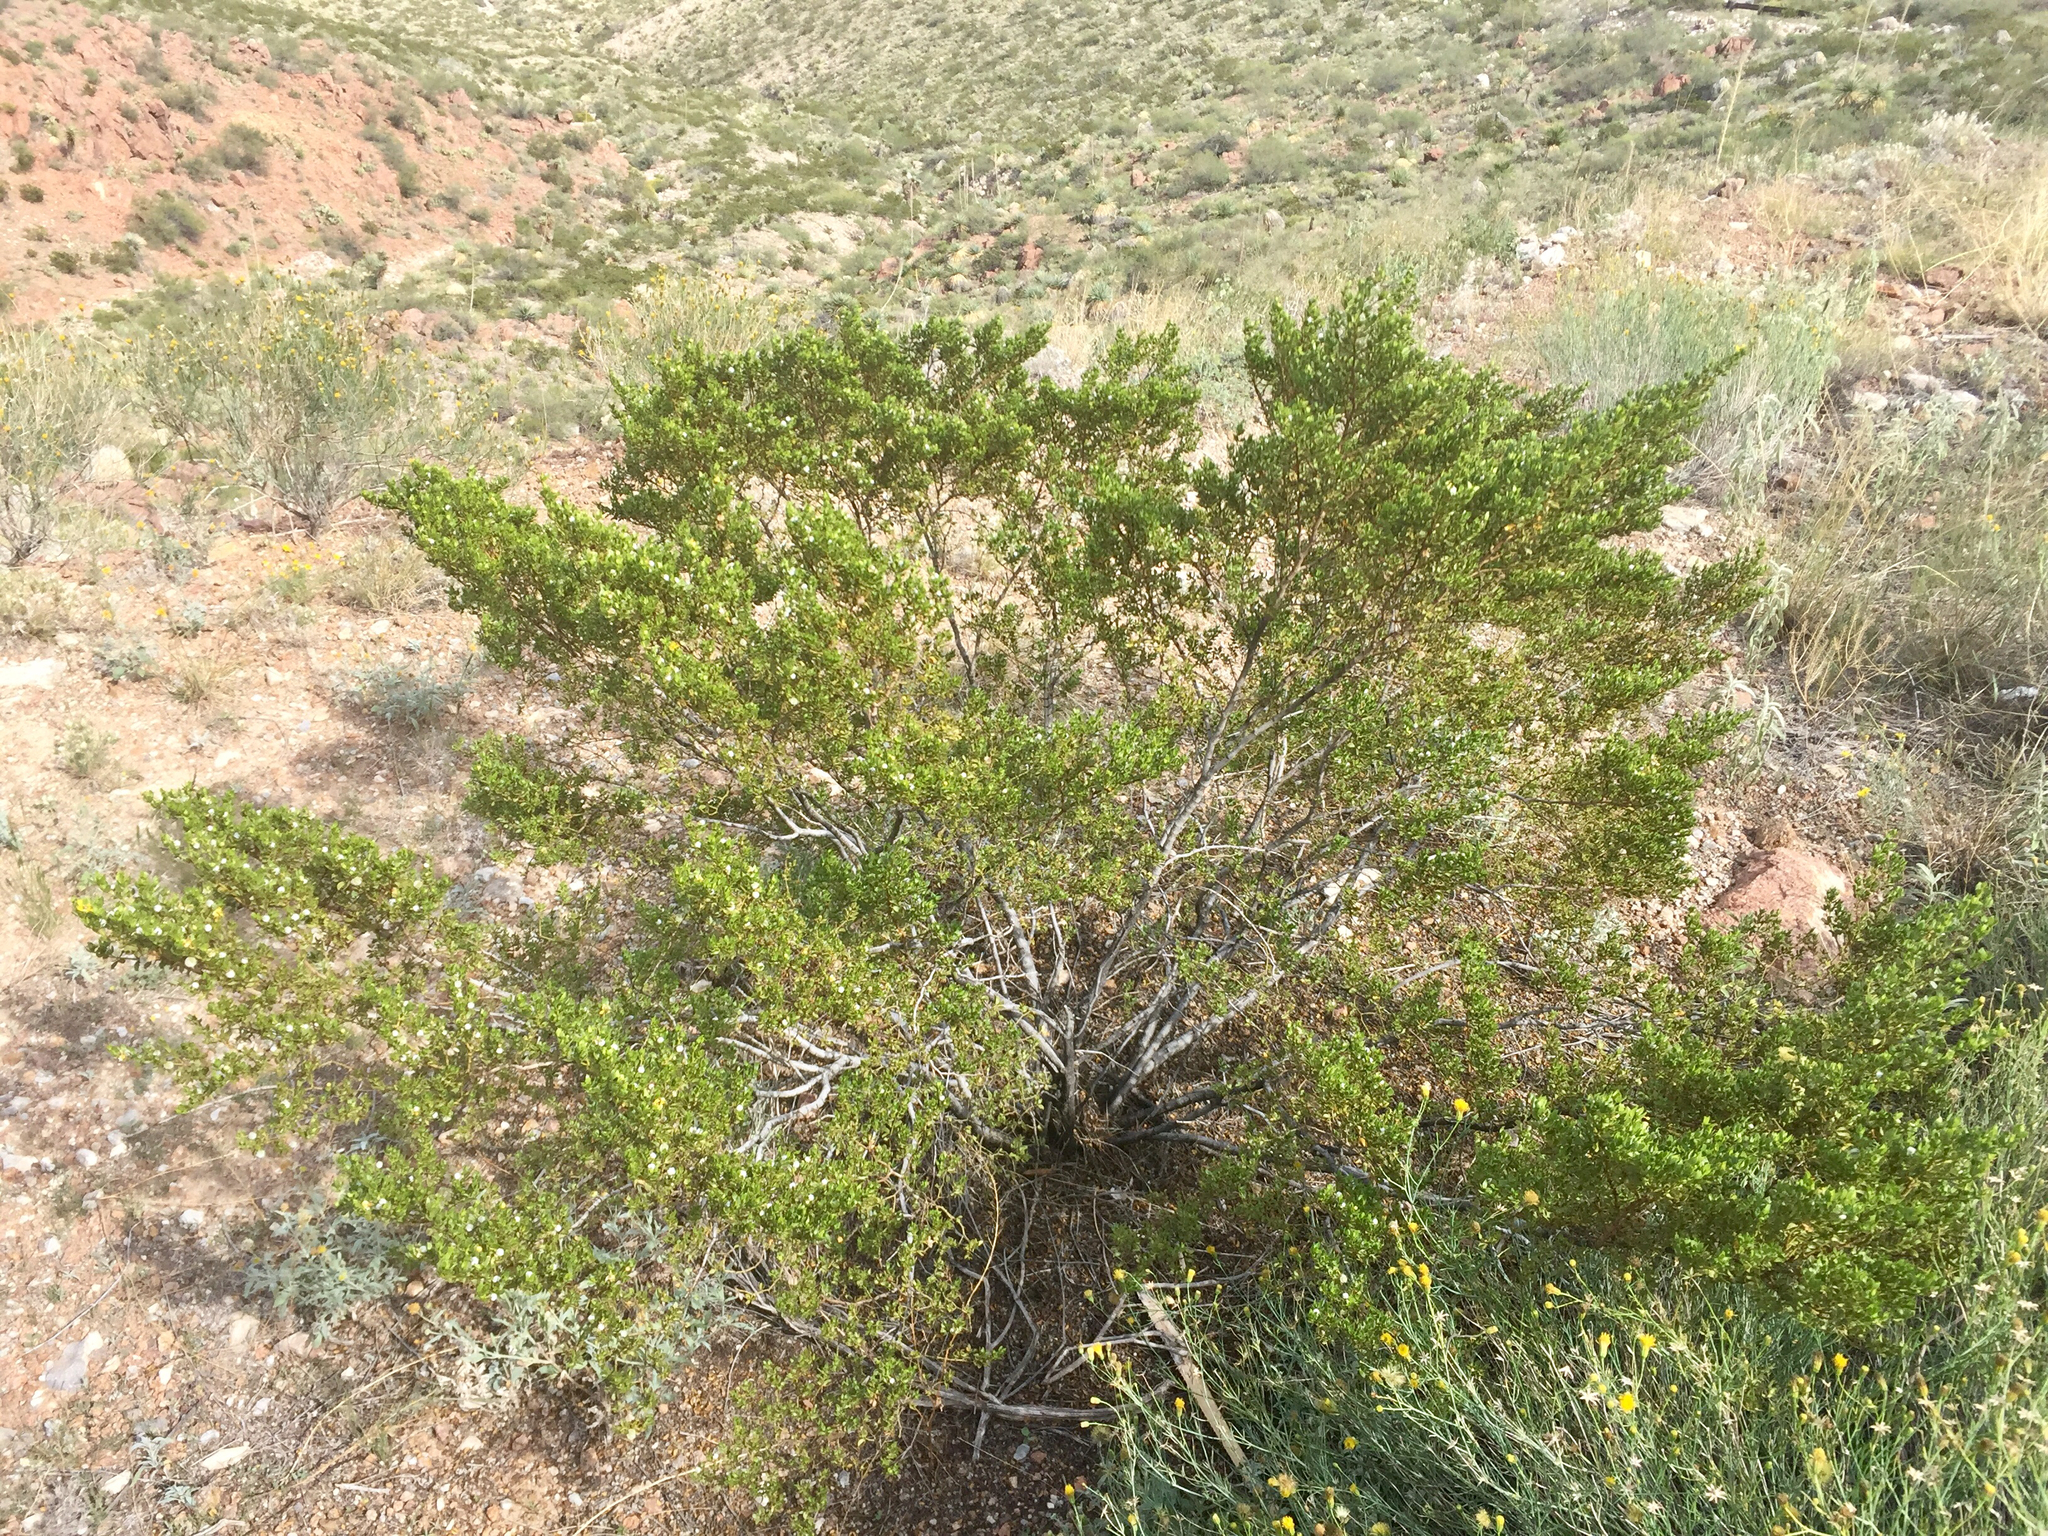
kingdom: Plantae
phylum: Tracheophyta
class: Magnoliopsida
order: Zygophyllales
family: Zygophyllaceae
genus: Larrea
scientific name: Larrea tridentata
